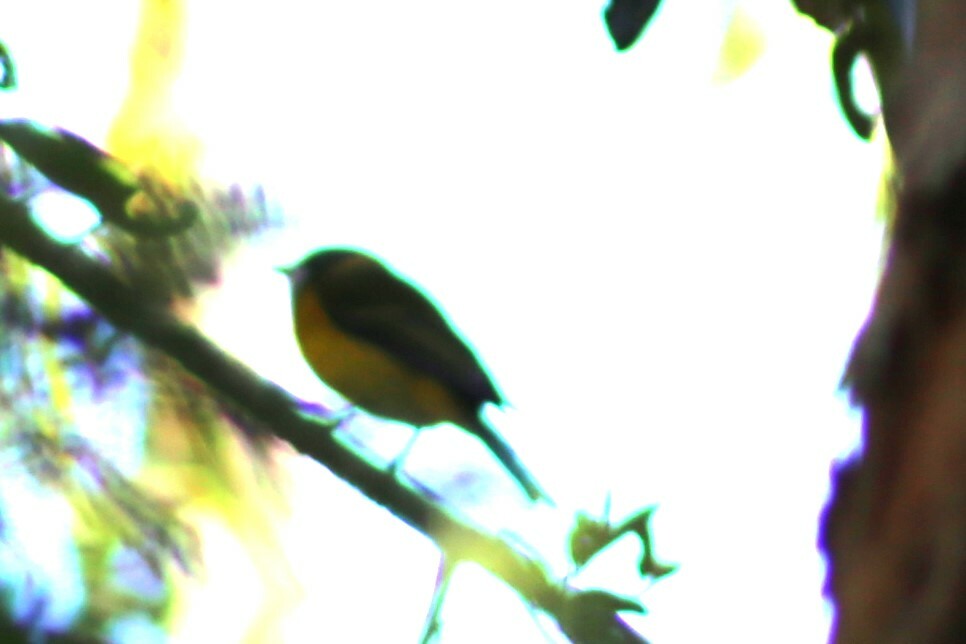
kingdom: Animalia
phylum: Chordata
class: Aves
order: Passeriformes
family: Pachycephalidae
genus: Pachycephala
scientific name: Pachycephala pectoralis
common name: Australian golden whistler
